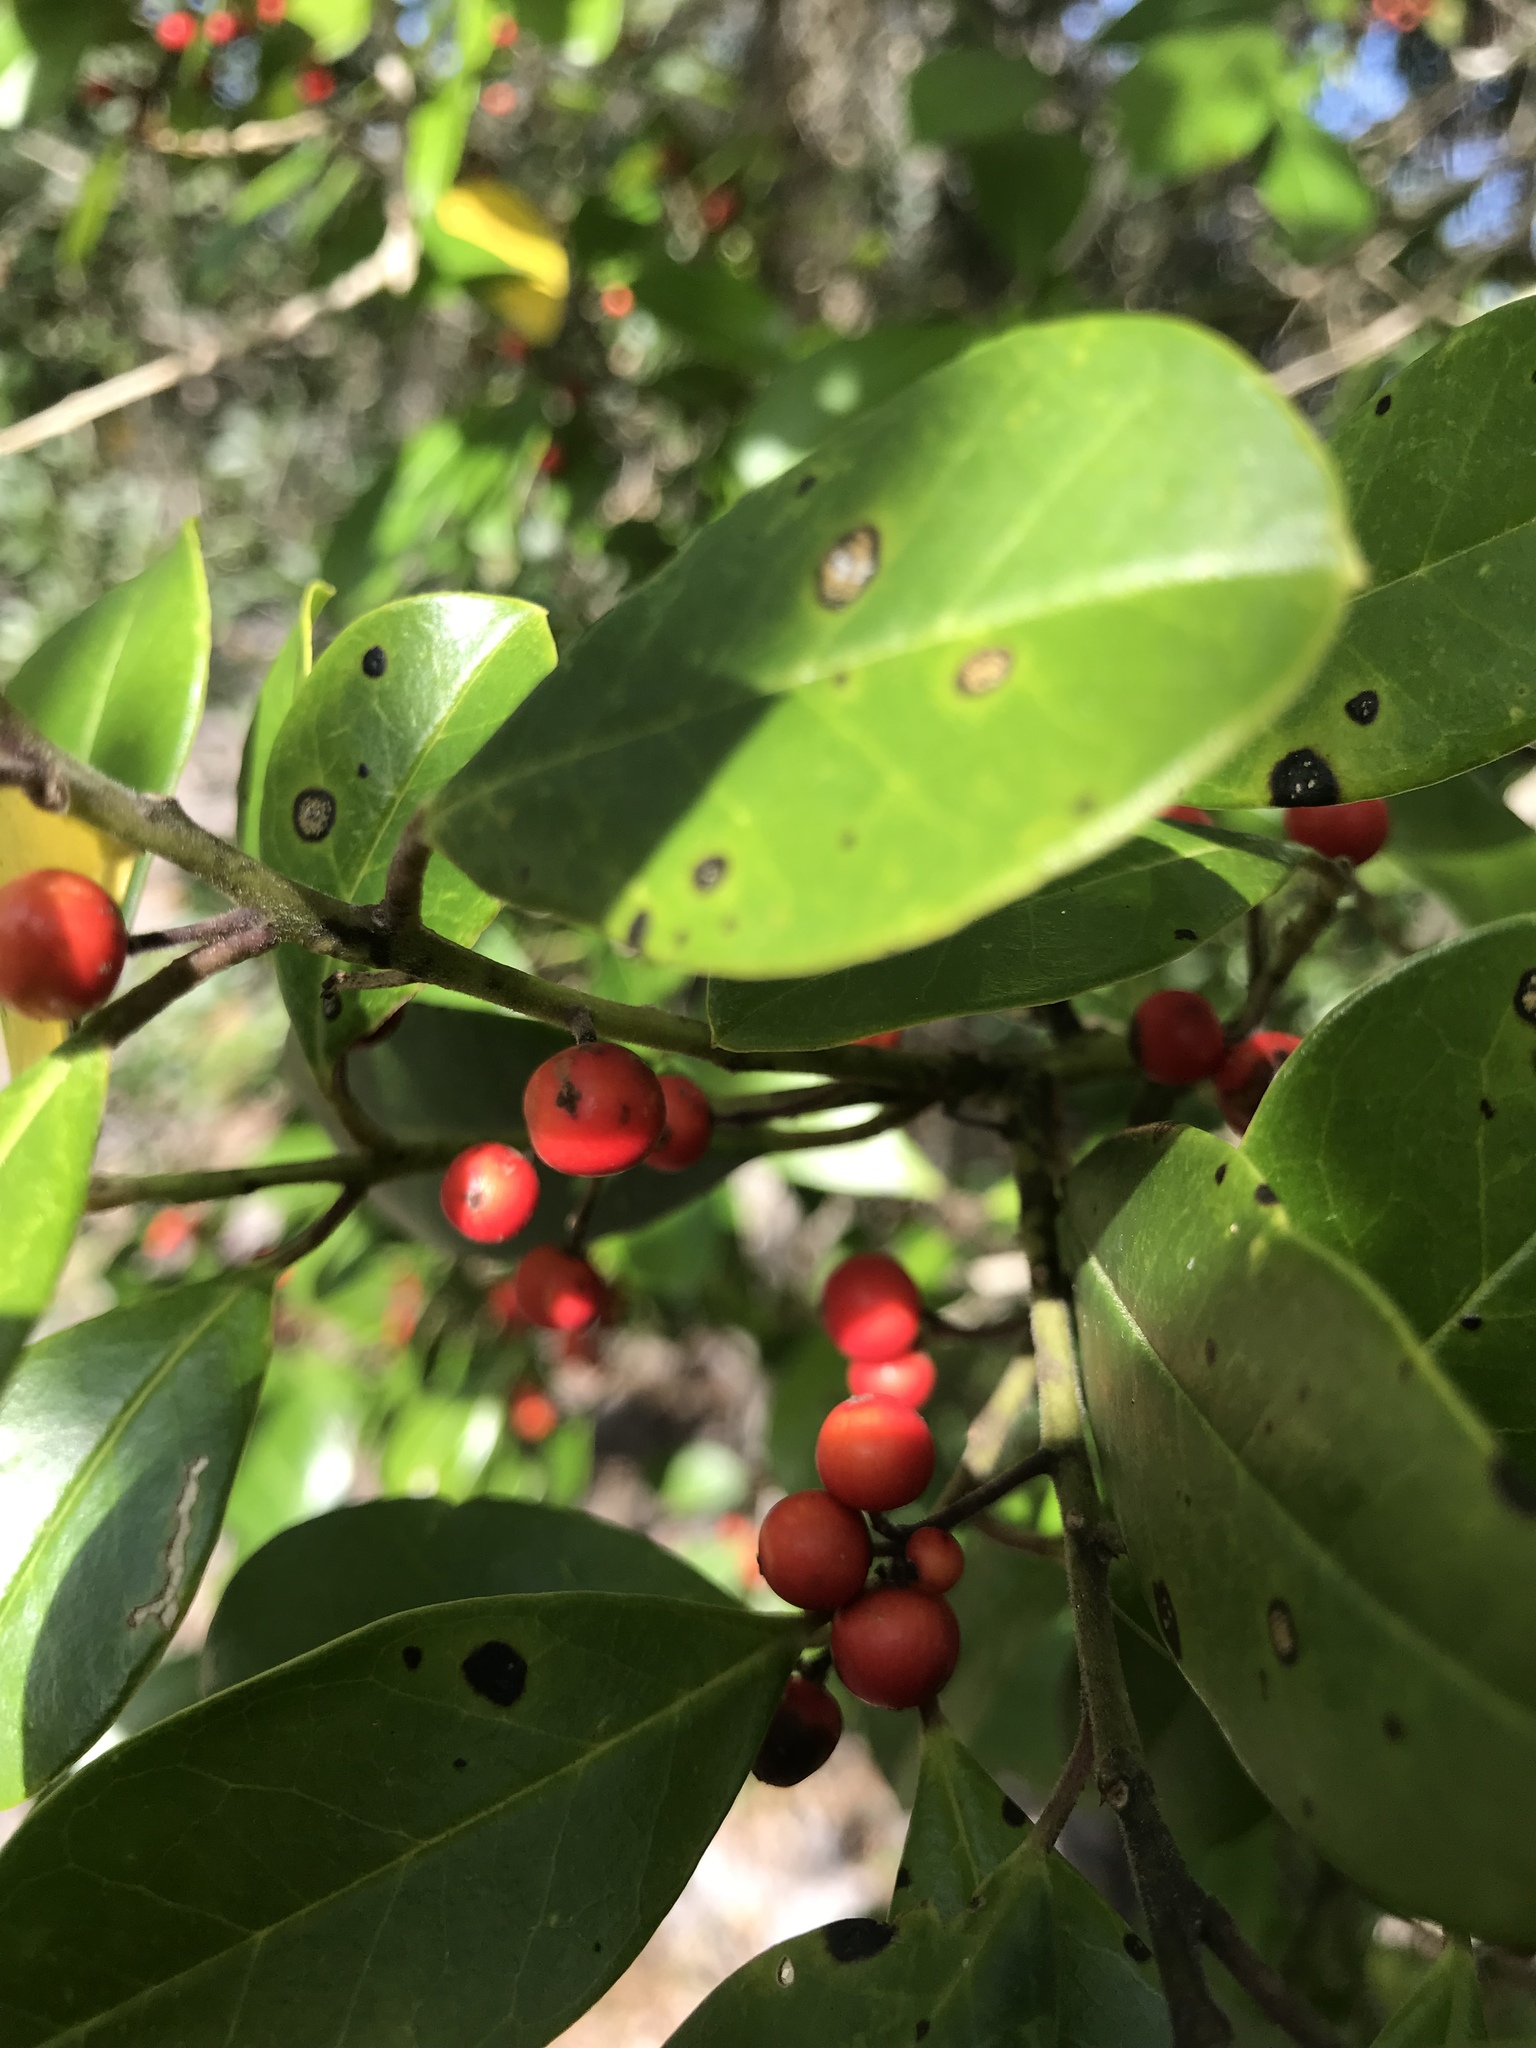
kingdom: Plantae
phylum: Tracheophyta
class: Magnoliopsida
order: Aquifoliales
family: Aquifoliaceae
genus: Ilex
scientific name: Ilex cassine
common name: Dahoon
